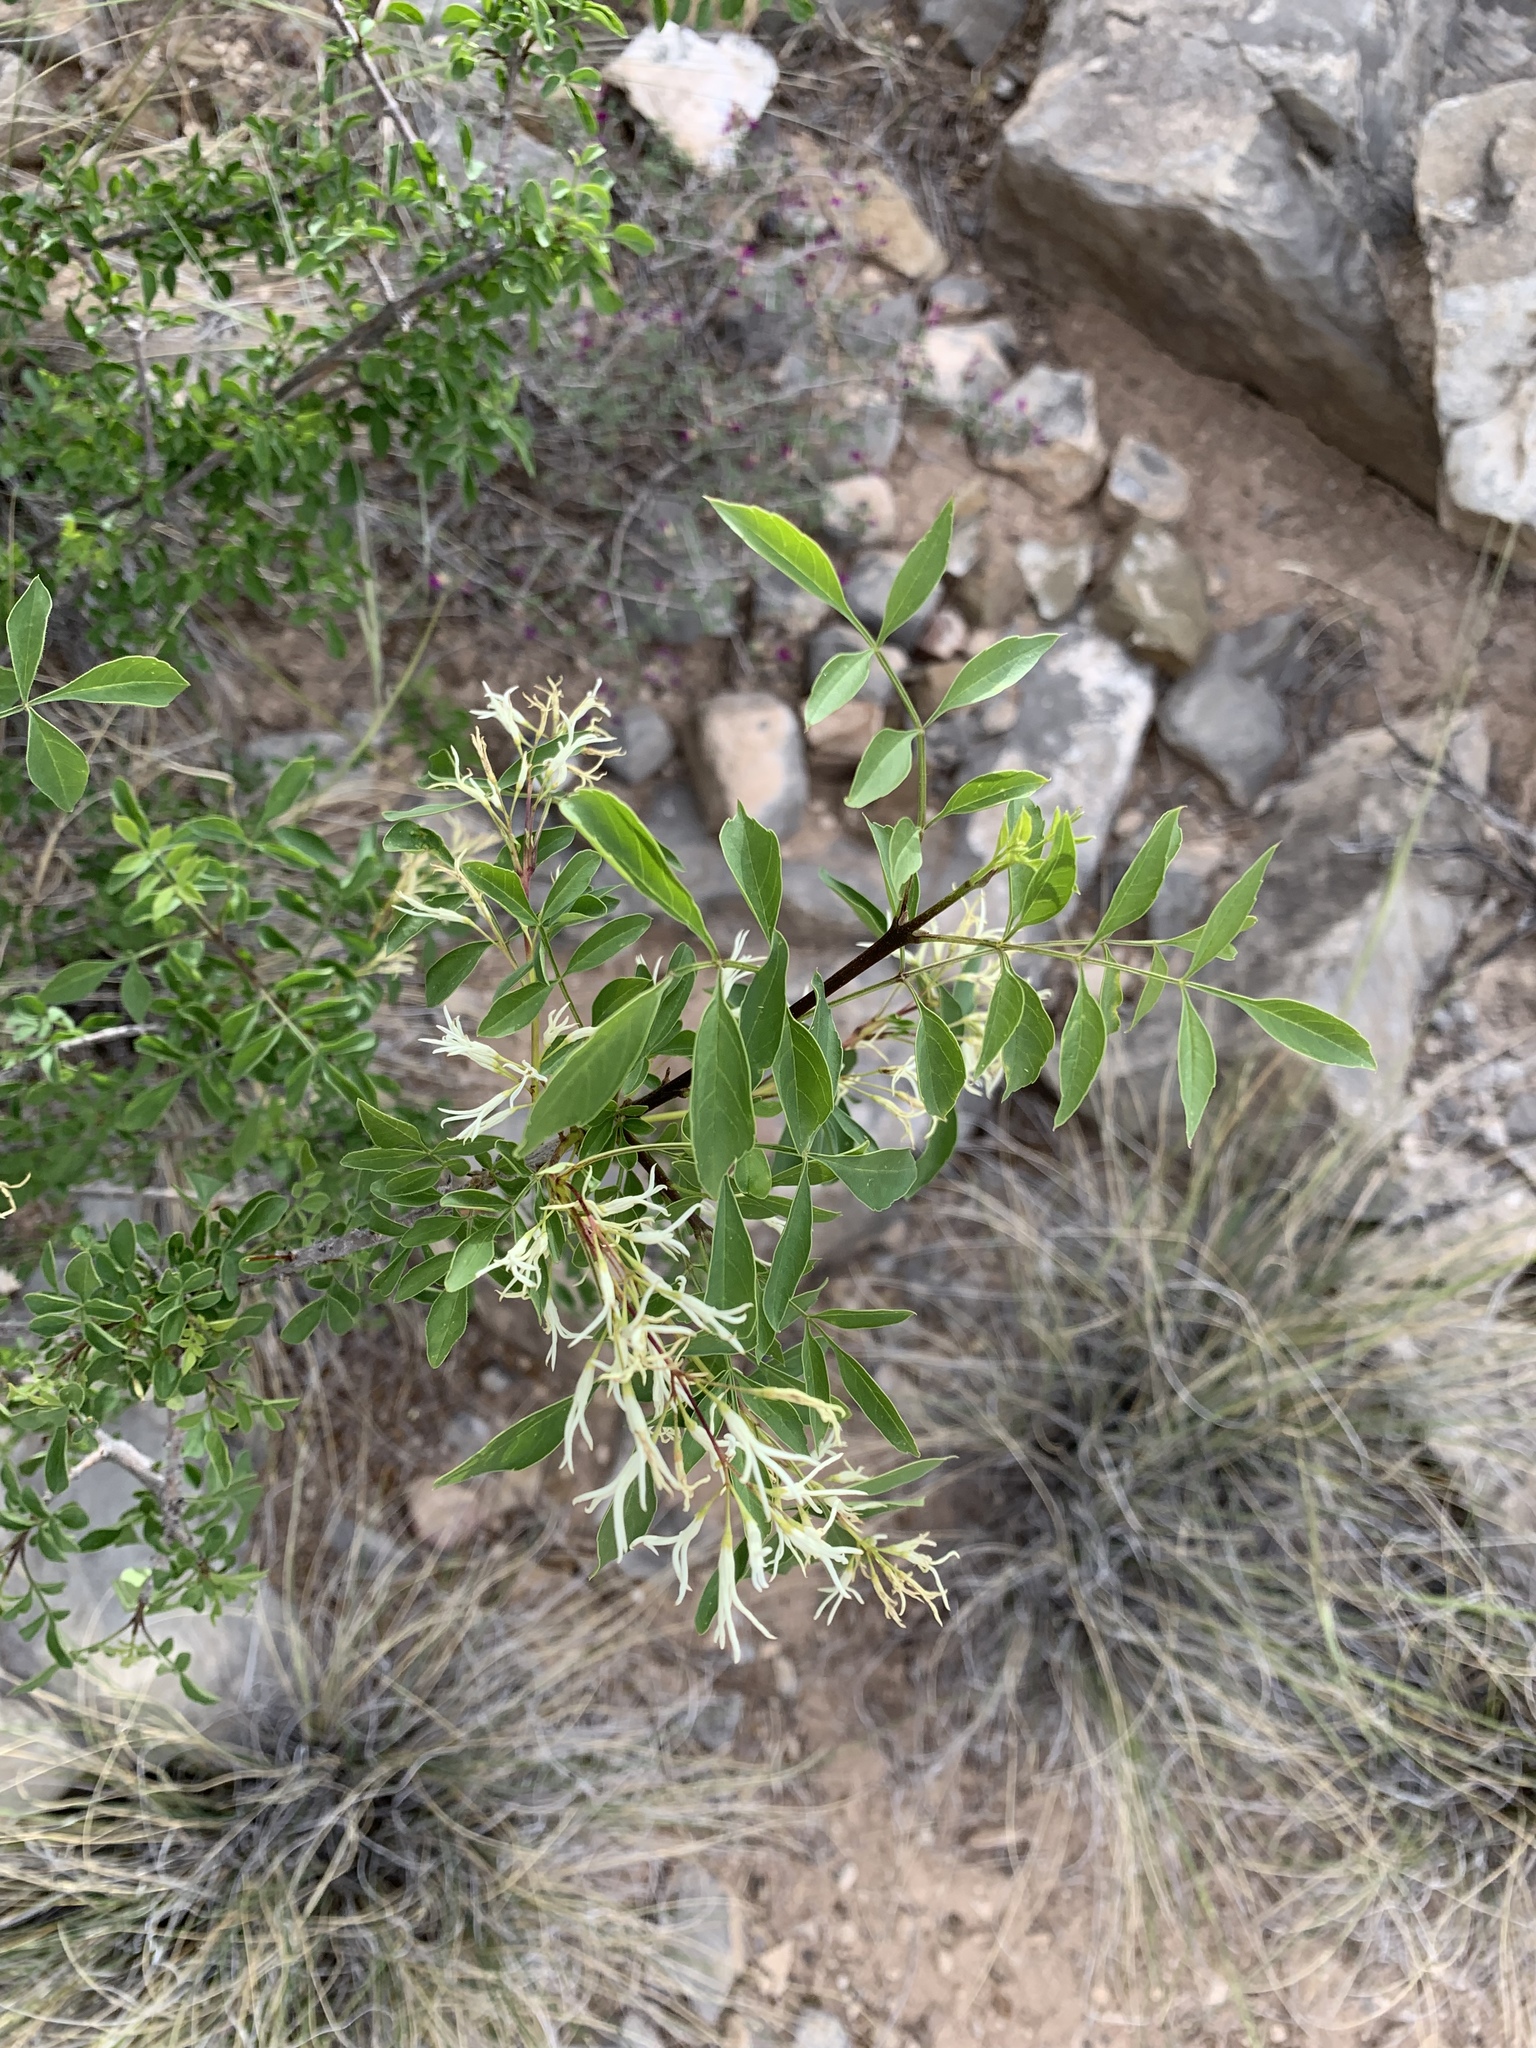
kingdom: Plantae
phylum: Tracheophyta
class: Magnoliopsida
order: Lamiales
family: Oleaceae
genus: Fraxinus
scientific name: Fraxinus cuspidata
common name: Fragrant ash
